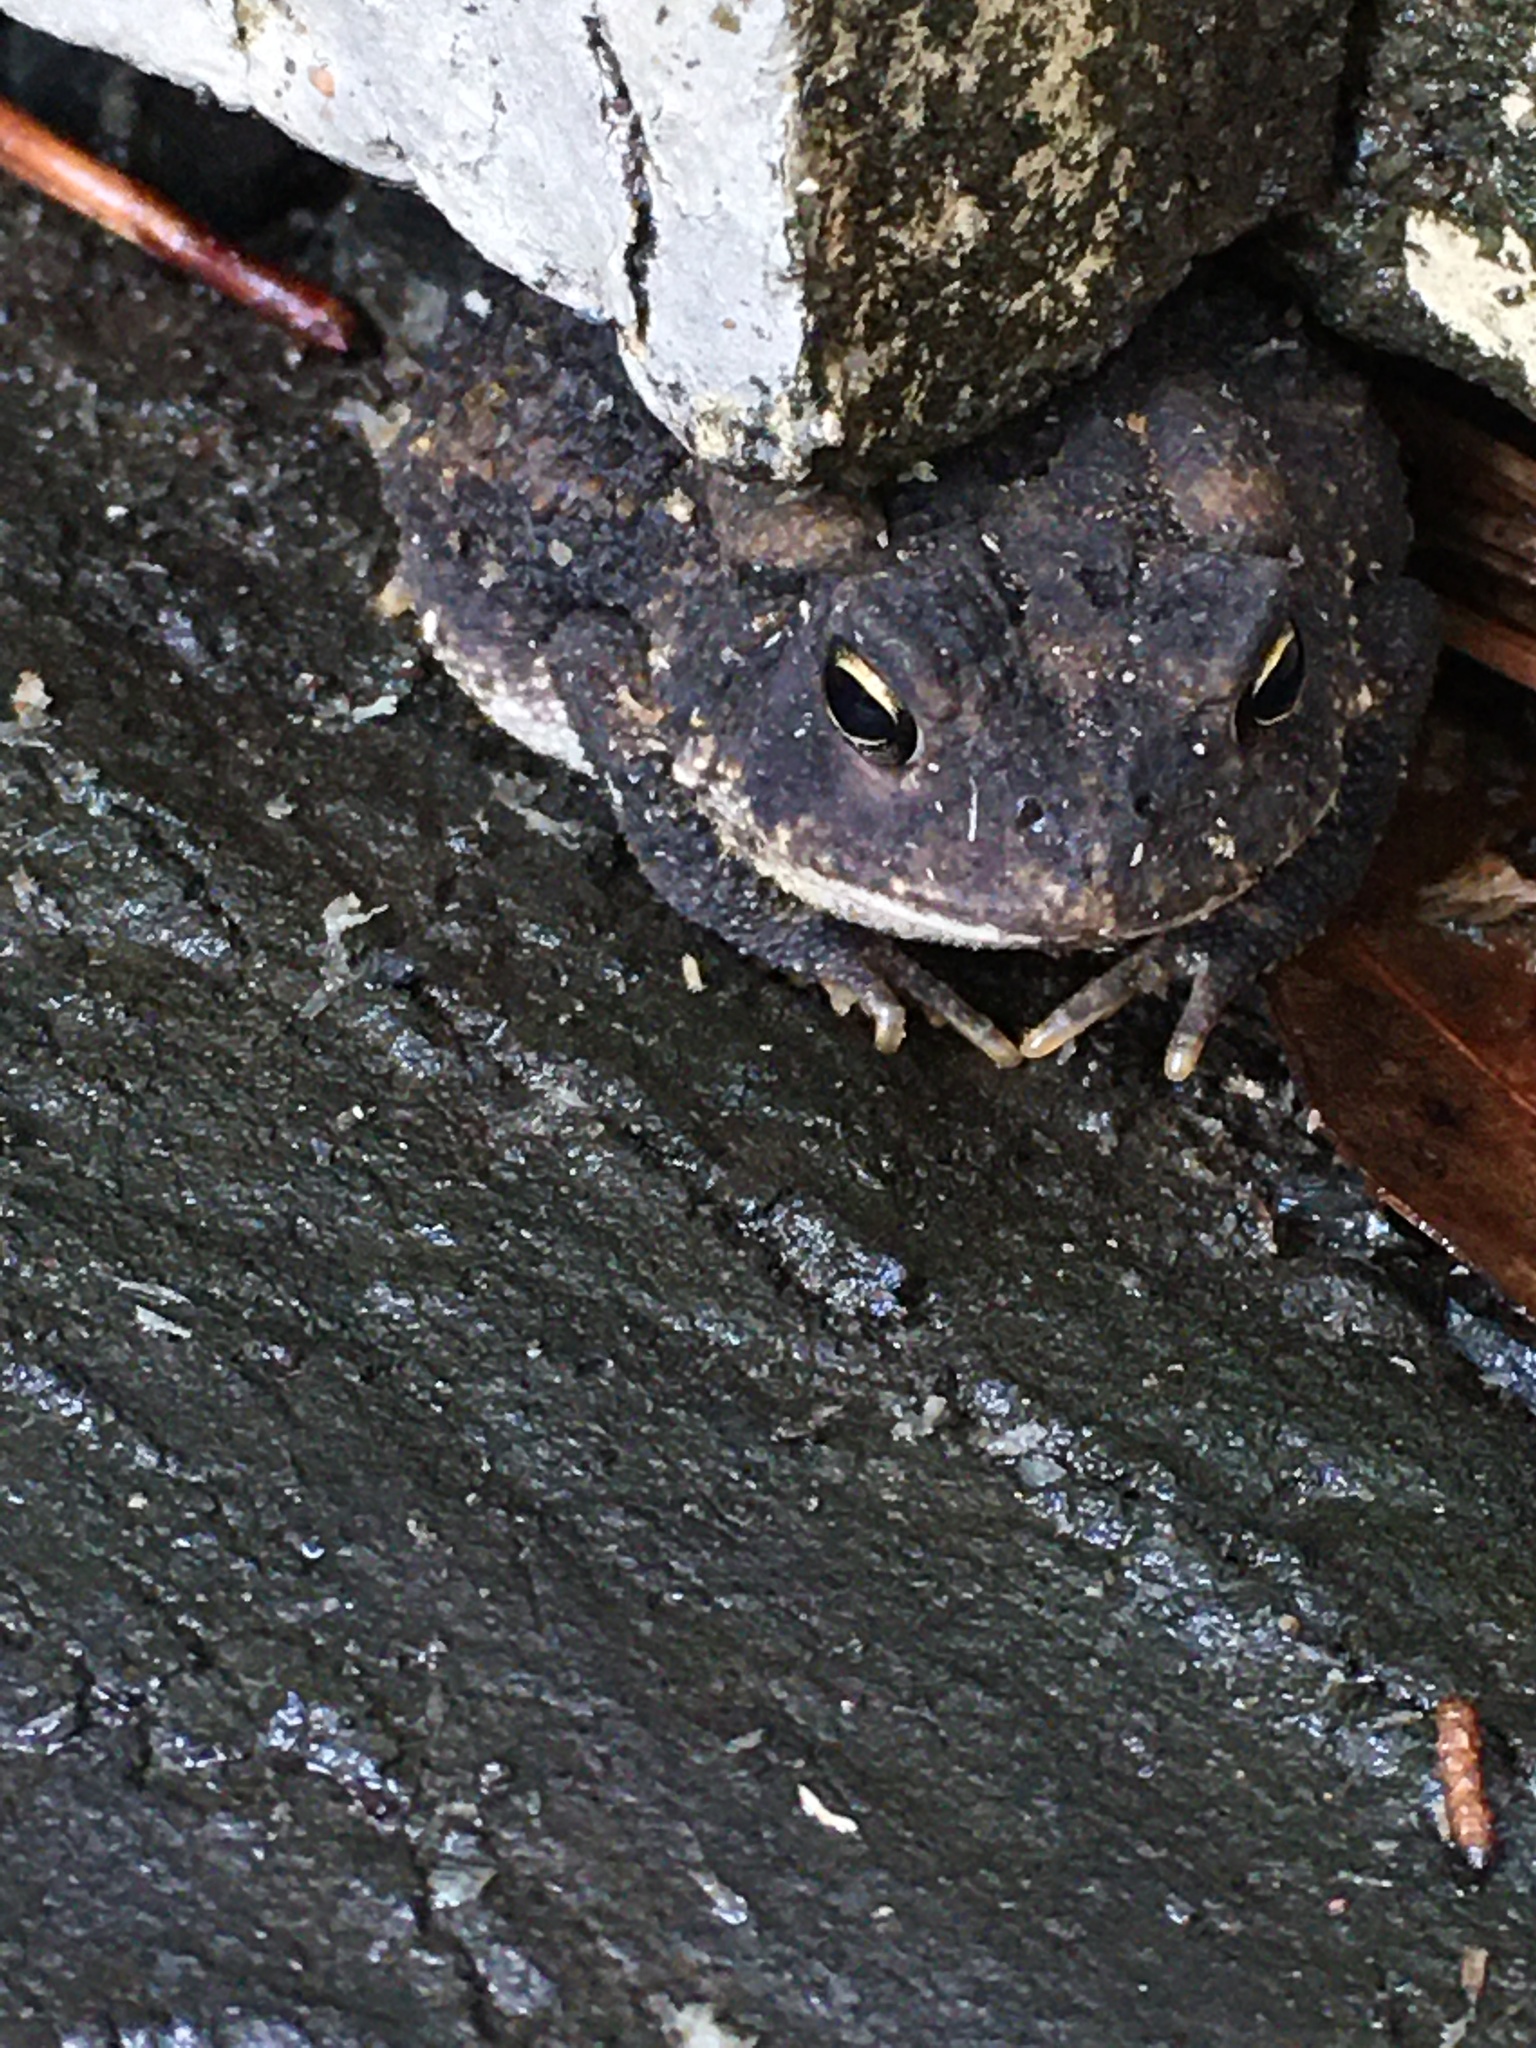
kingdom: Animalia
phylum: Chordata
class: Amphibia
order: Anura
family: Bufonidae
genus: Anaxyrus
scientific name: Anaxyrus terrestris
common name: Southern toad
